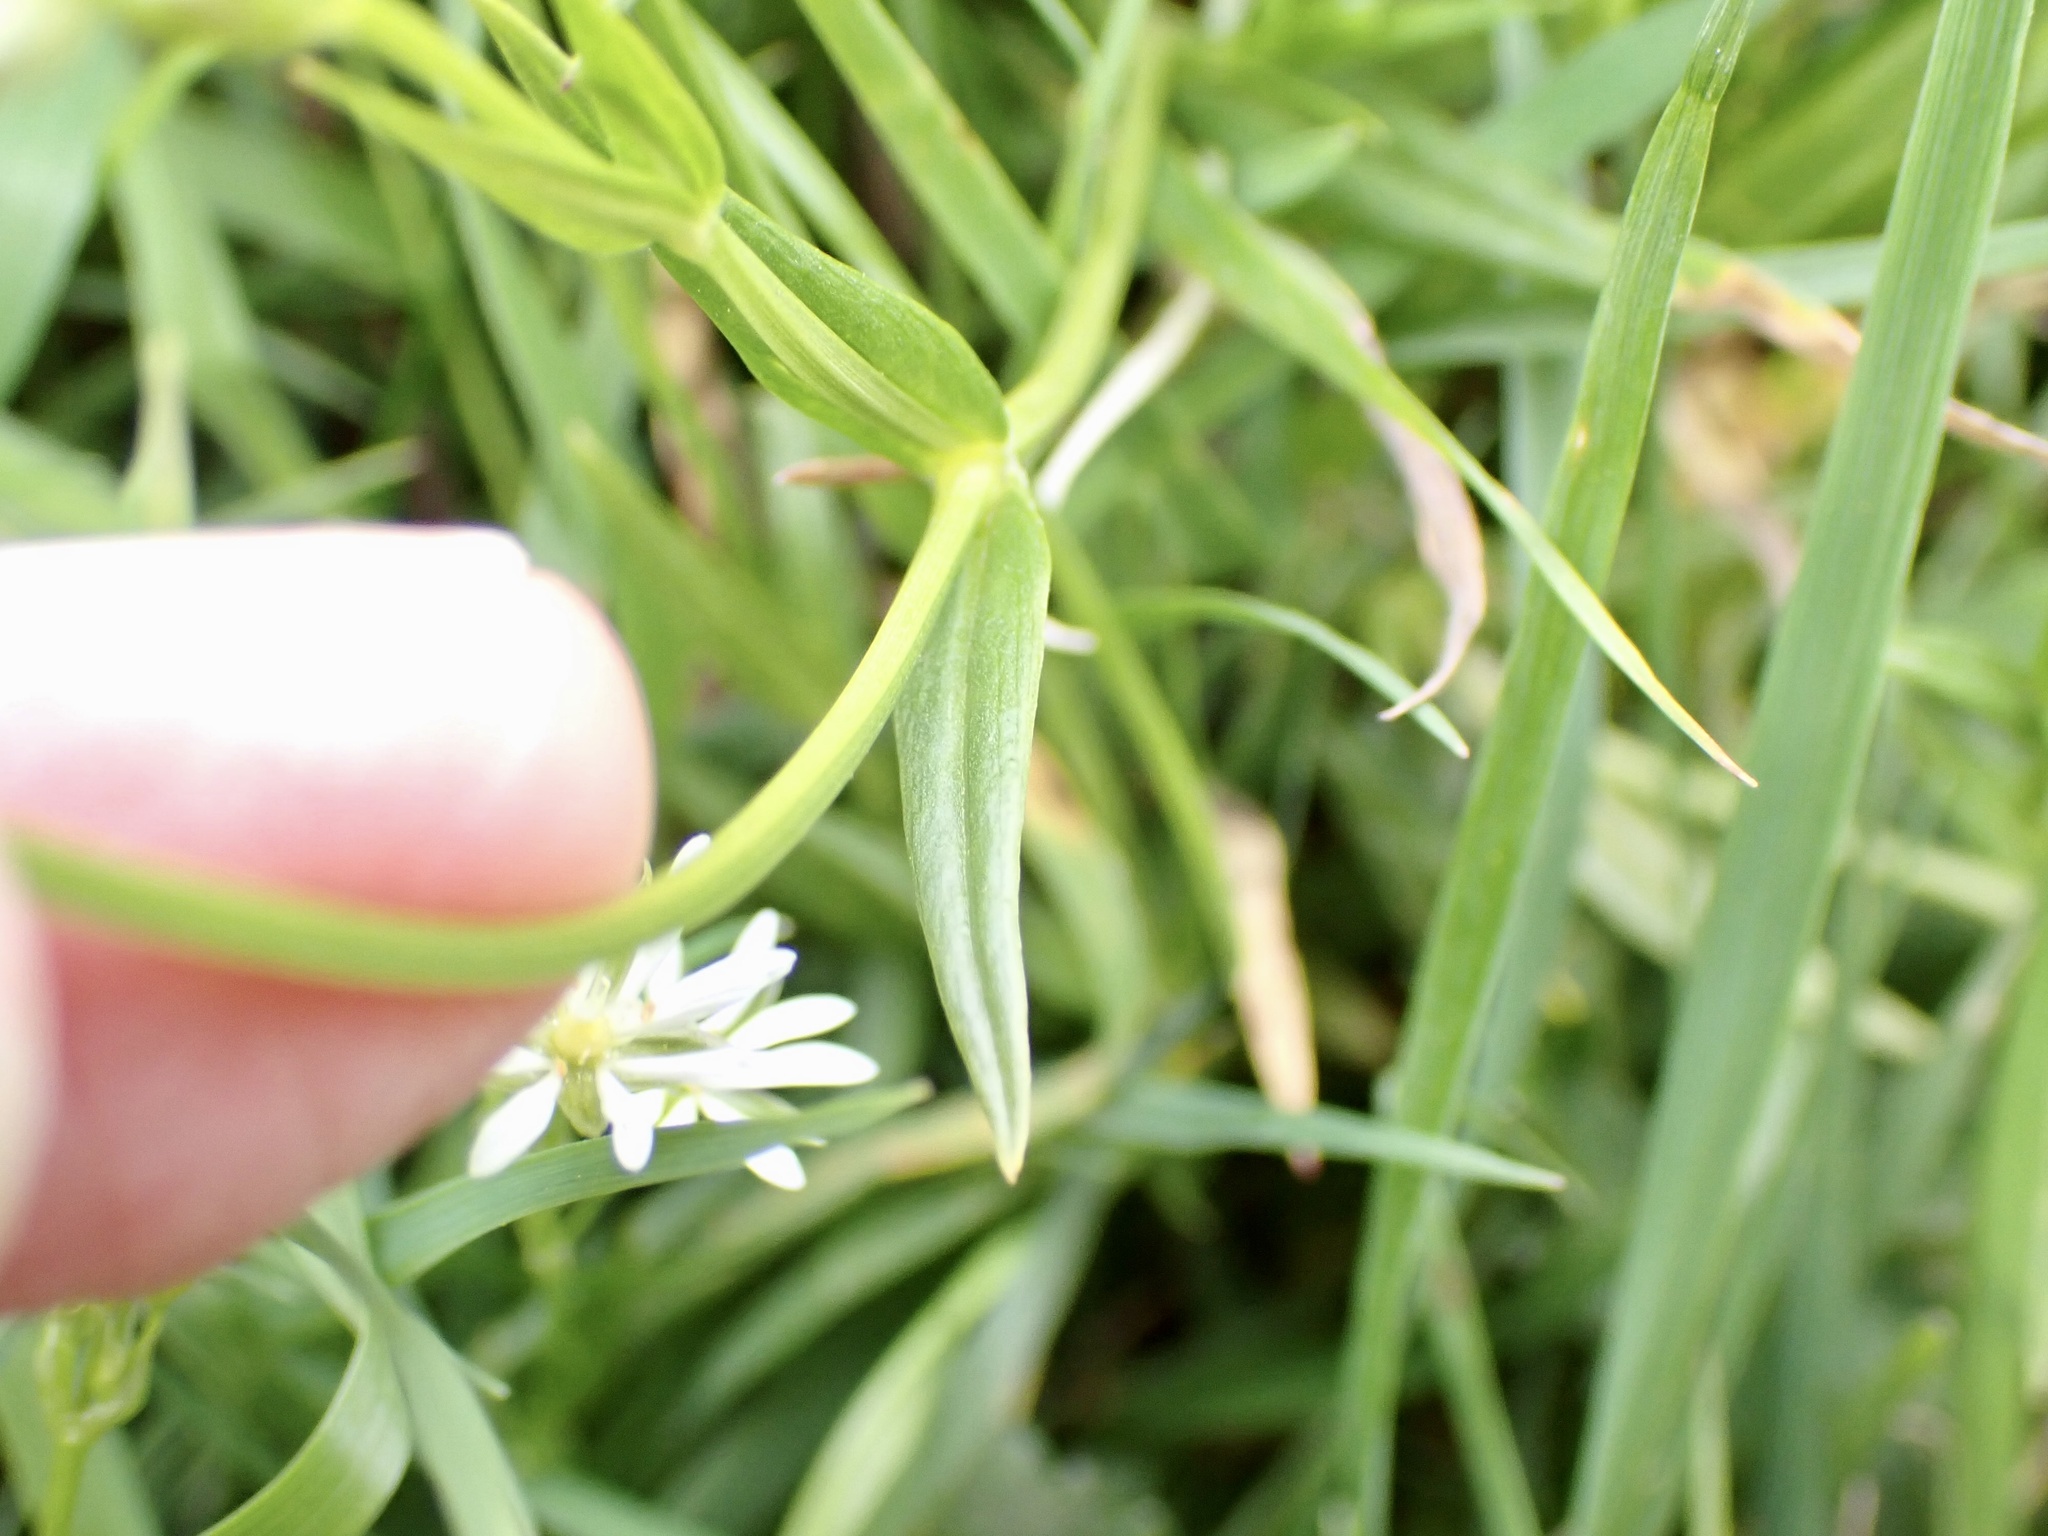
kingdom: Plantae
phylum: Tracheophyta
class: Magnoliopsida
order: Caryophyllales
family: Caryophyllaceae
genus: Stellaria
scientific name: Stellaria graminea
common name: Grass-like starwort
